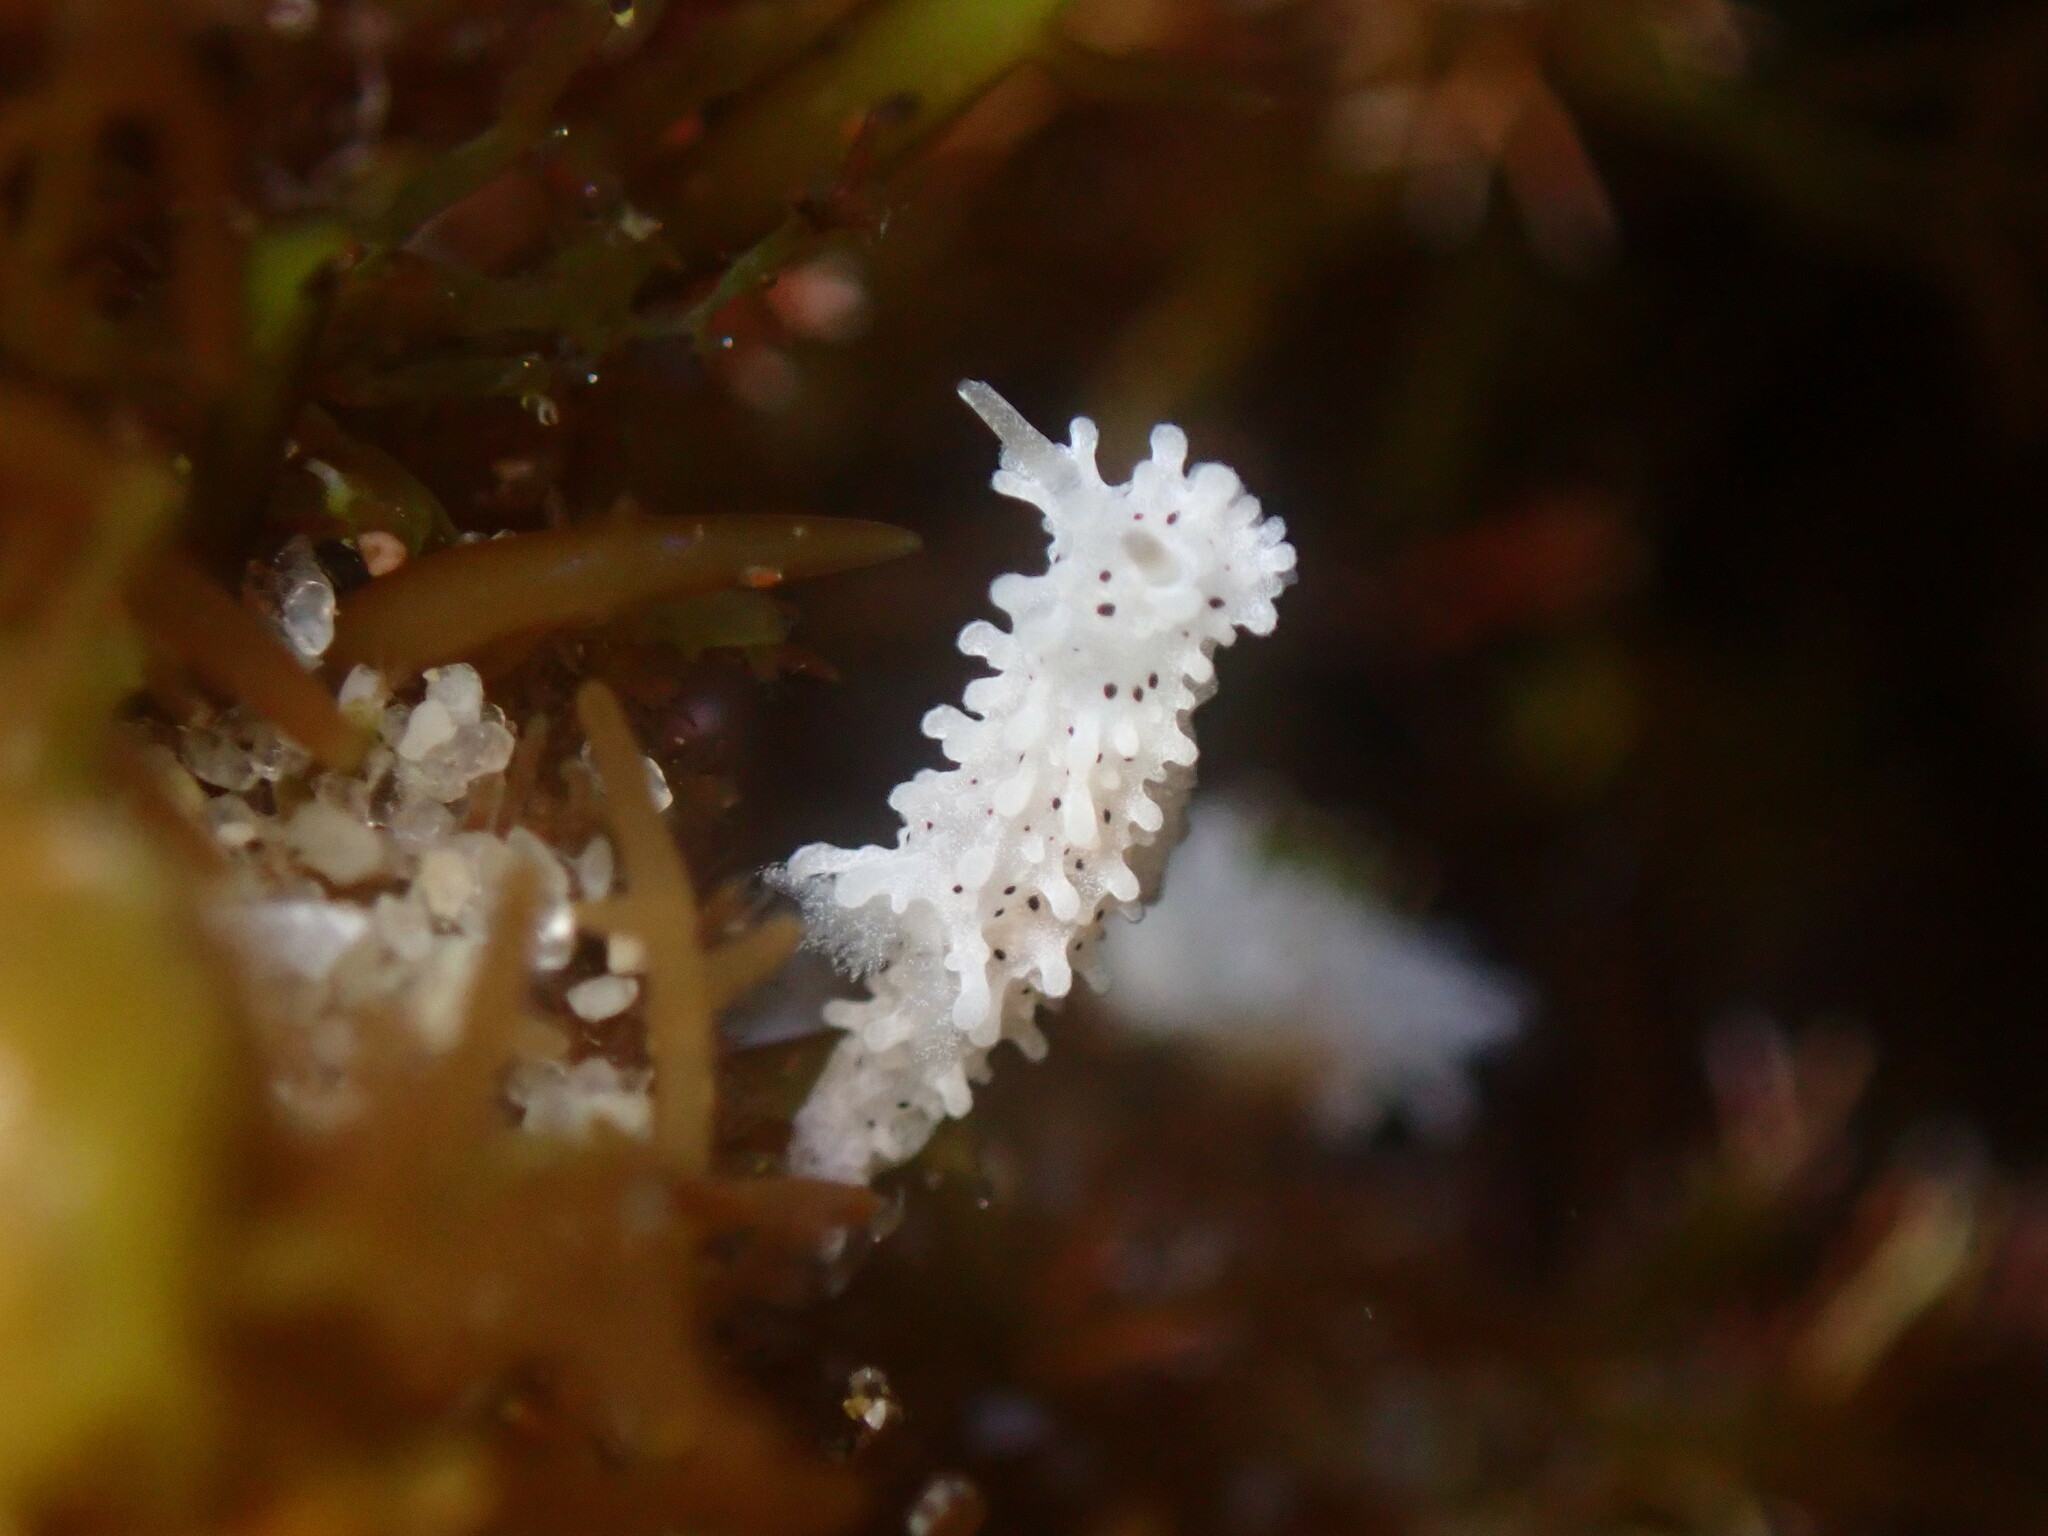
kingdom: Animalia
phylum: Mollusca
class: Gastropoda
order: Nudibranchia
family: Aegiridae
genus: Aegires
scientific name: Aegires albopunctatus
